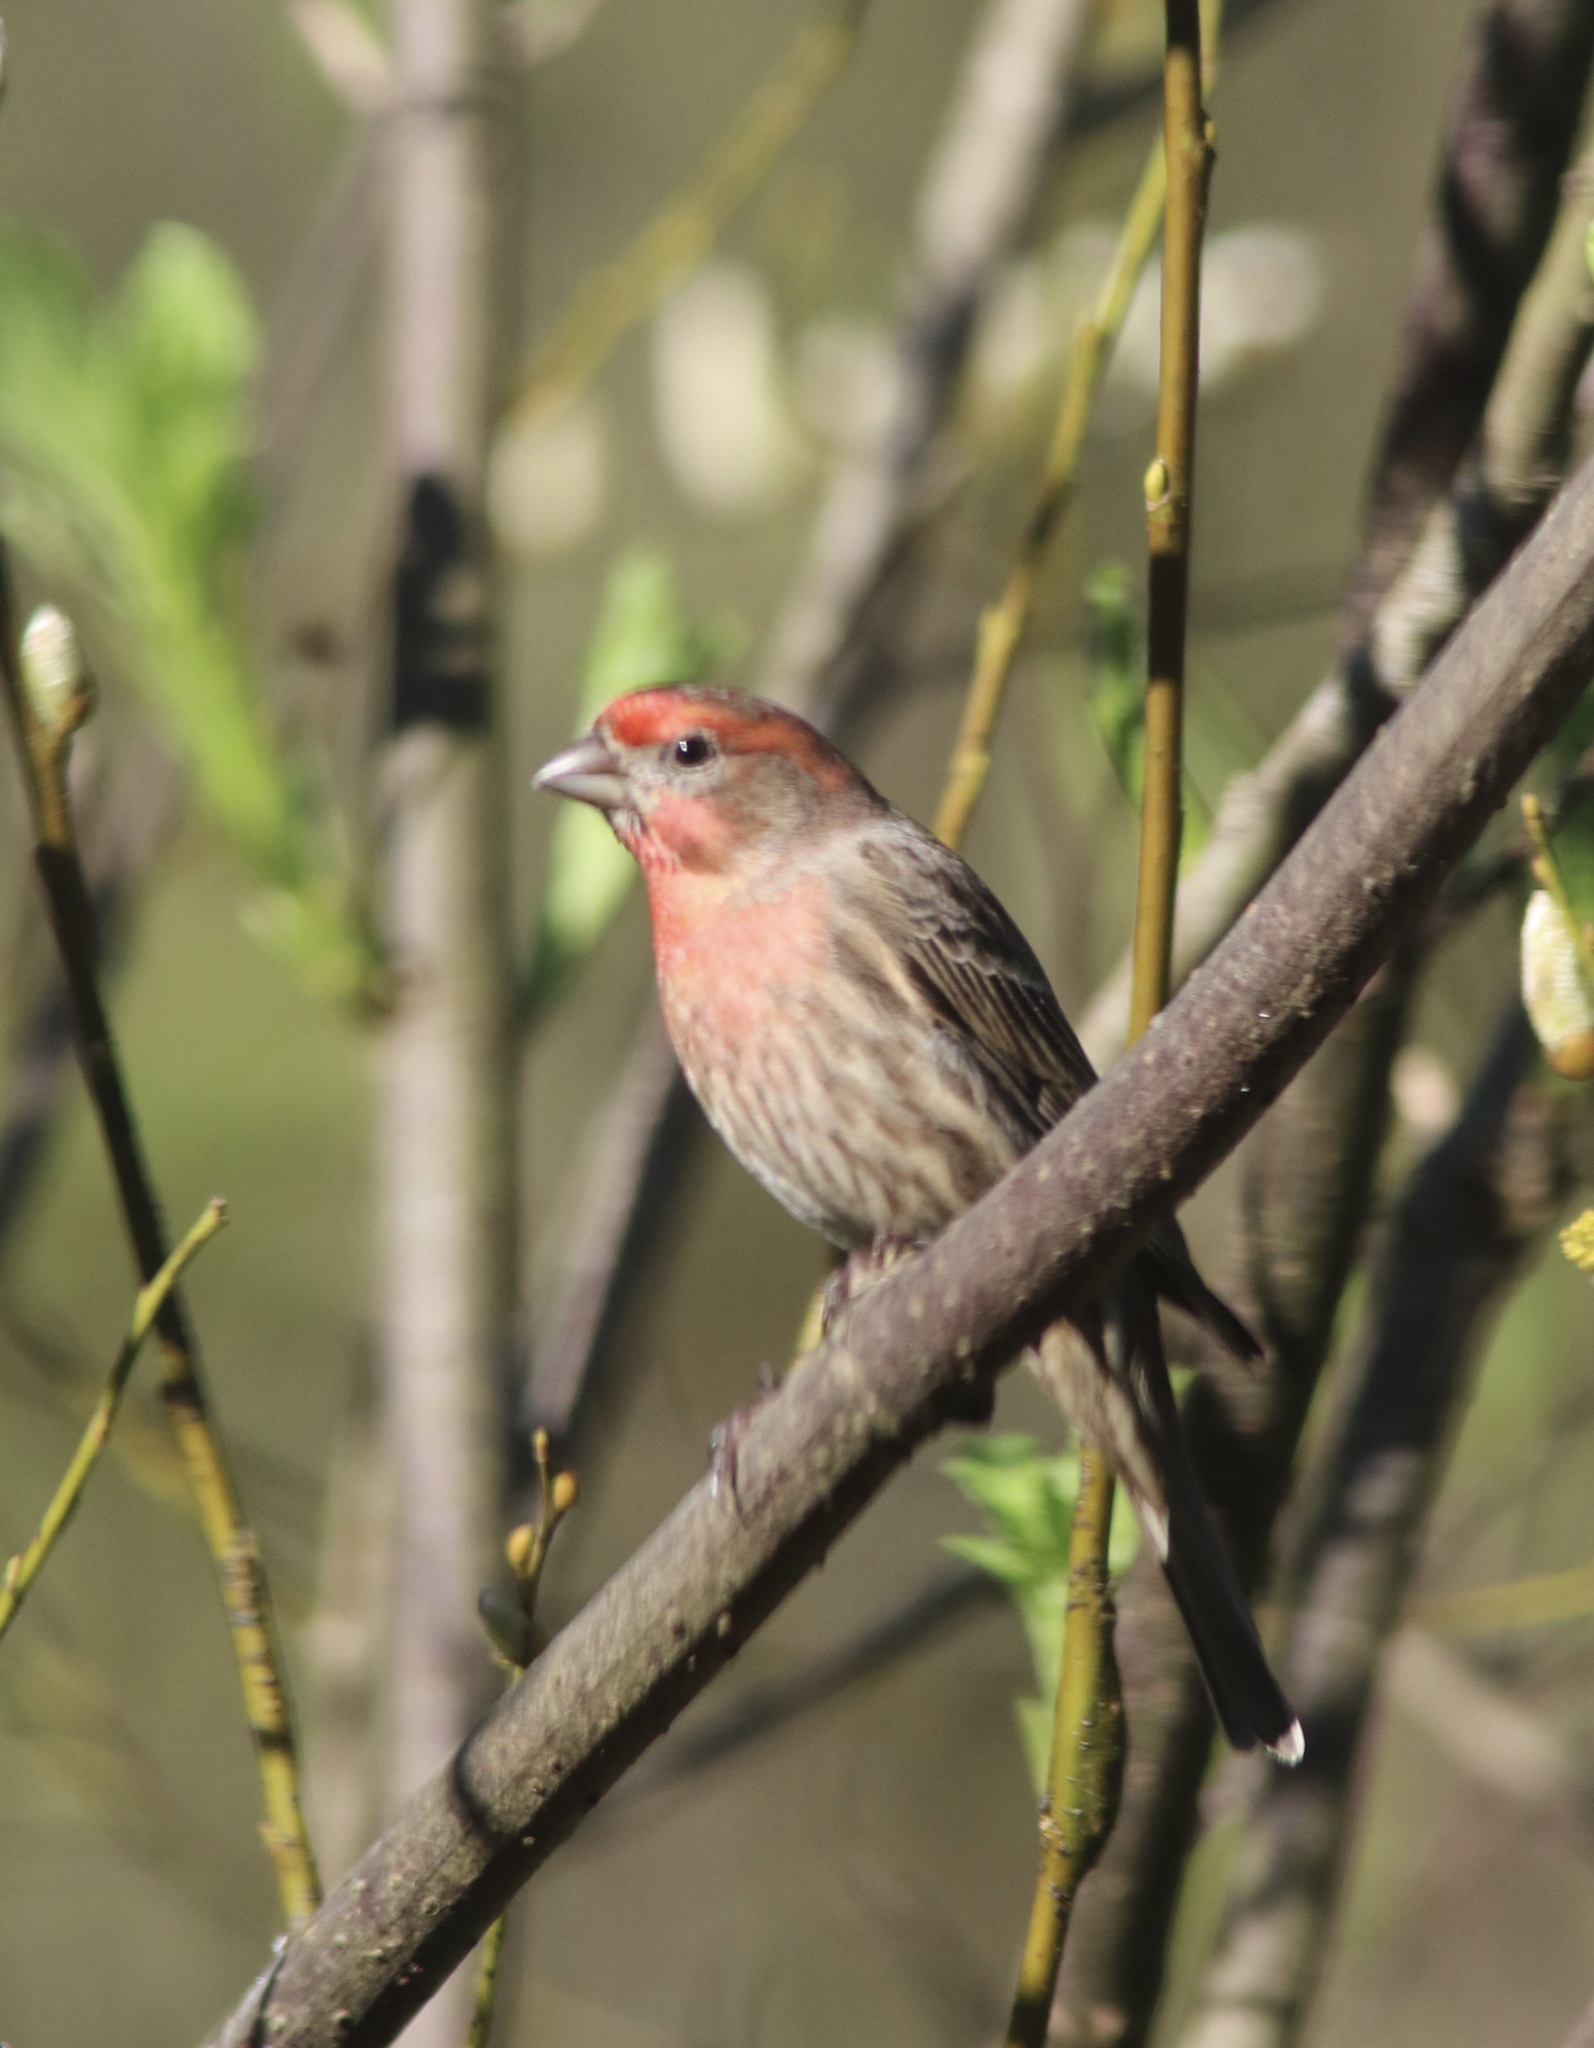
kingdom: Animalia
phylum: Chordata
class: Aves
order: Passeriformes
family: Fringillidae
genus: Haemorhous
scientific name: Haemorhous mexicanus
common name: House finch
